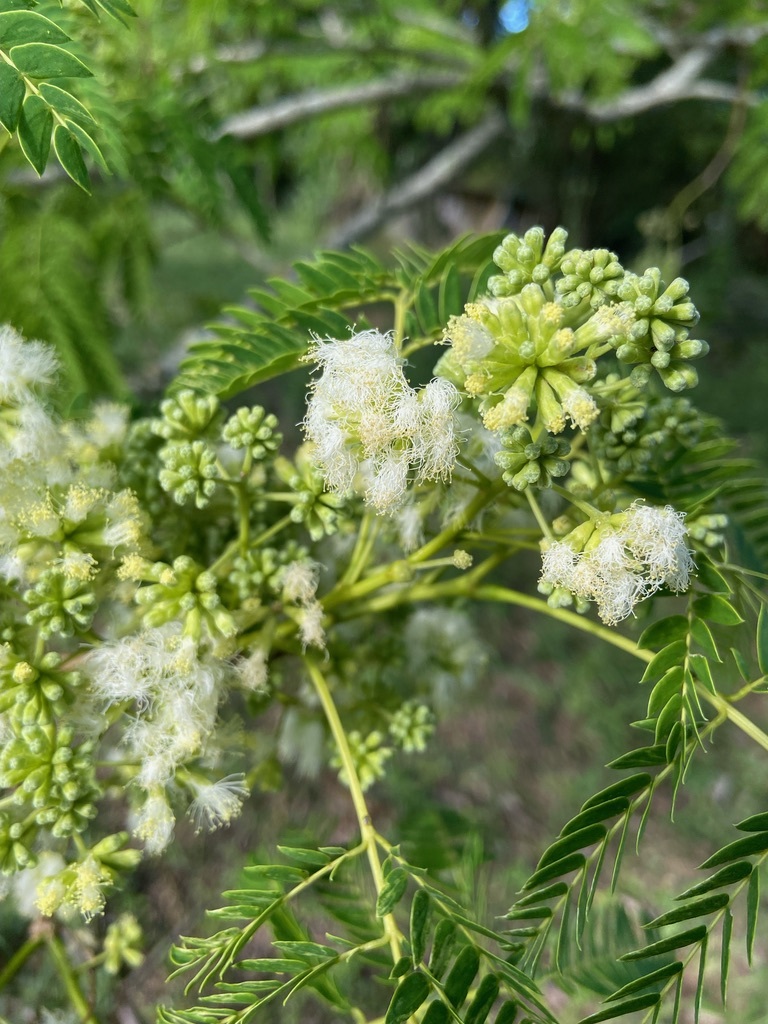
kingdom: Plantae
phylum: Tracheophyta
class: Magnoliopsida
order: Fabales
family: Fabaceae
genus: Enterolobium
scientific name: Enterolobium contortisiliquum
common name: Pacara earpod tree
